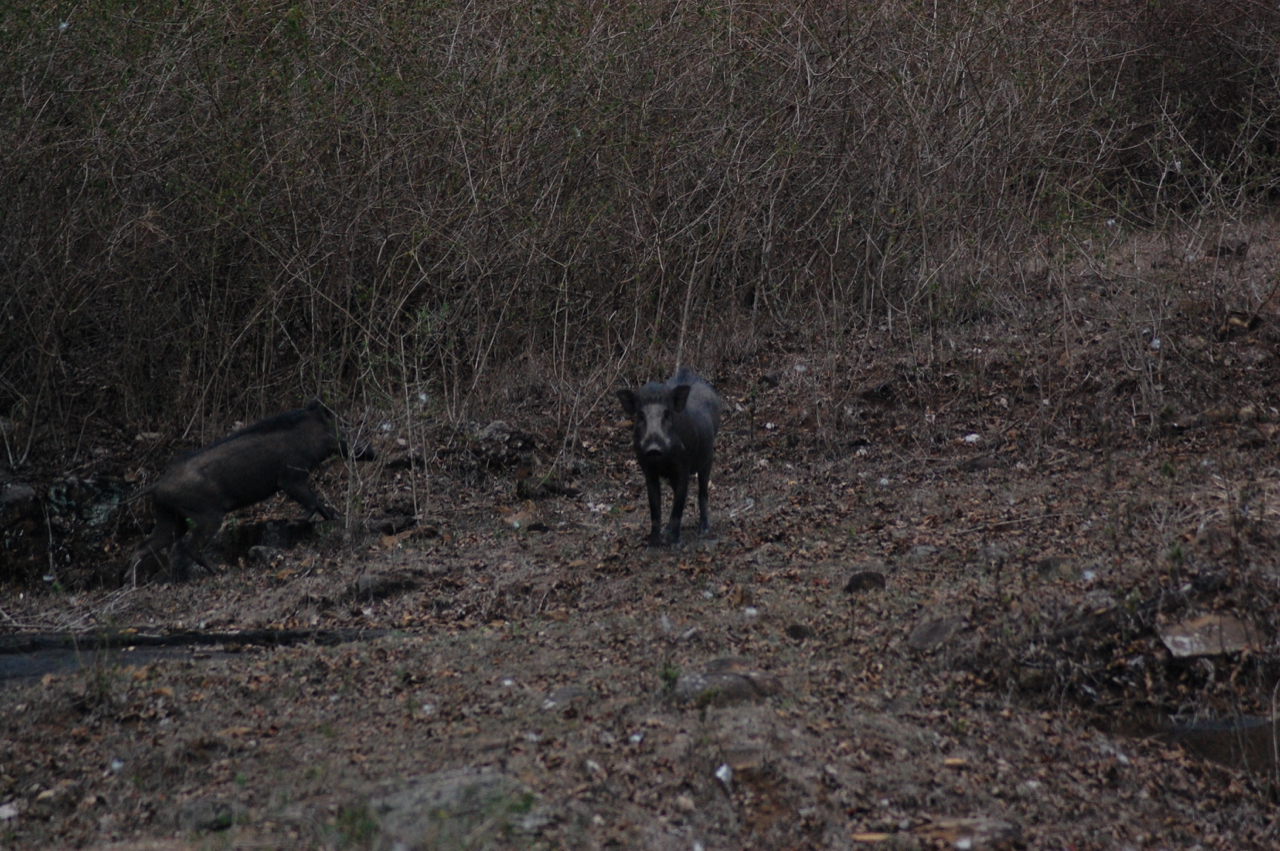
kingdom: Animalia
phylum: Chordata
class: Mammalia
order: Artiodactyla
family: Suidae
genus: Sus
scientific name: Sus scrofa
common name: Wild boar
